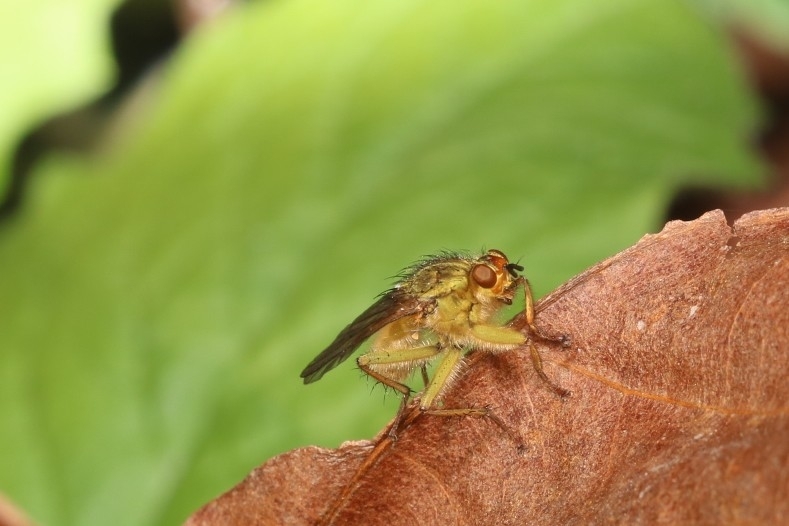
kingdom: Animalia
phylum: Arthropoda
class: Insecta
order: Diptera
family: Scathophagidae
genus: Scathophaga
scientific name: Scathophaga stercoraria
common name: Yellow dung fly
